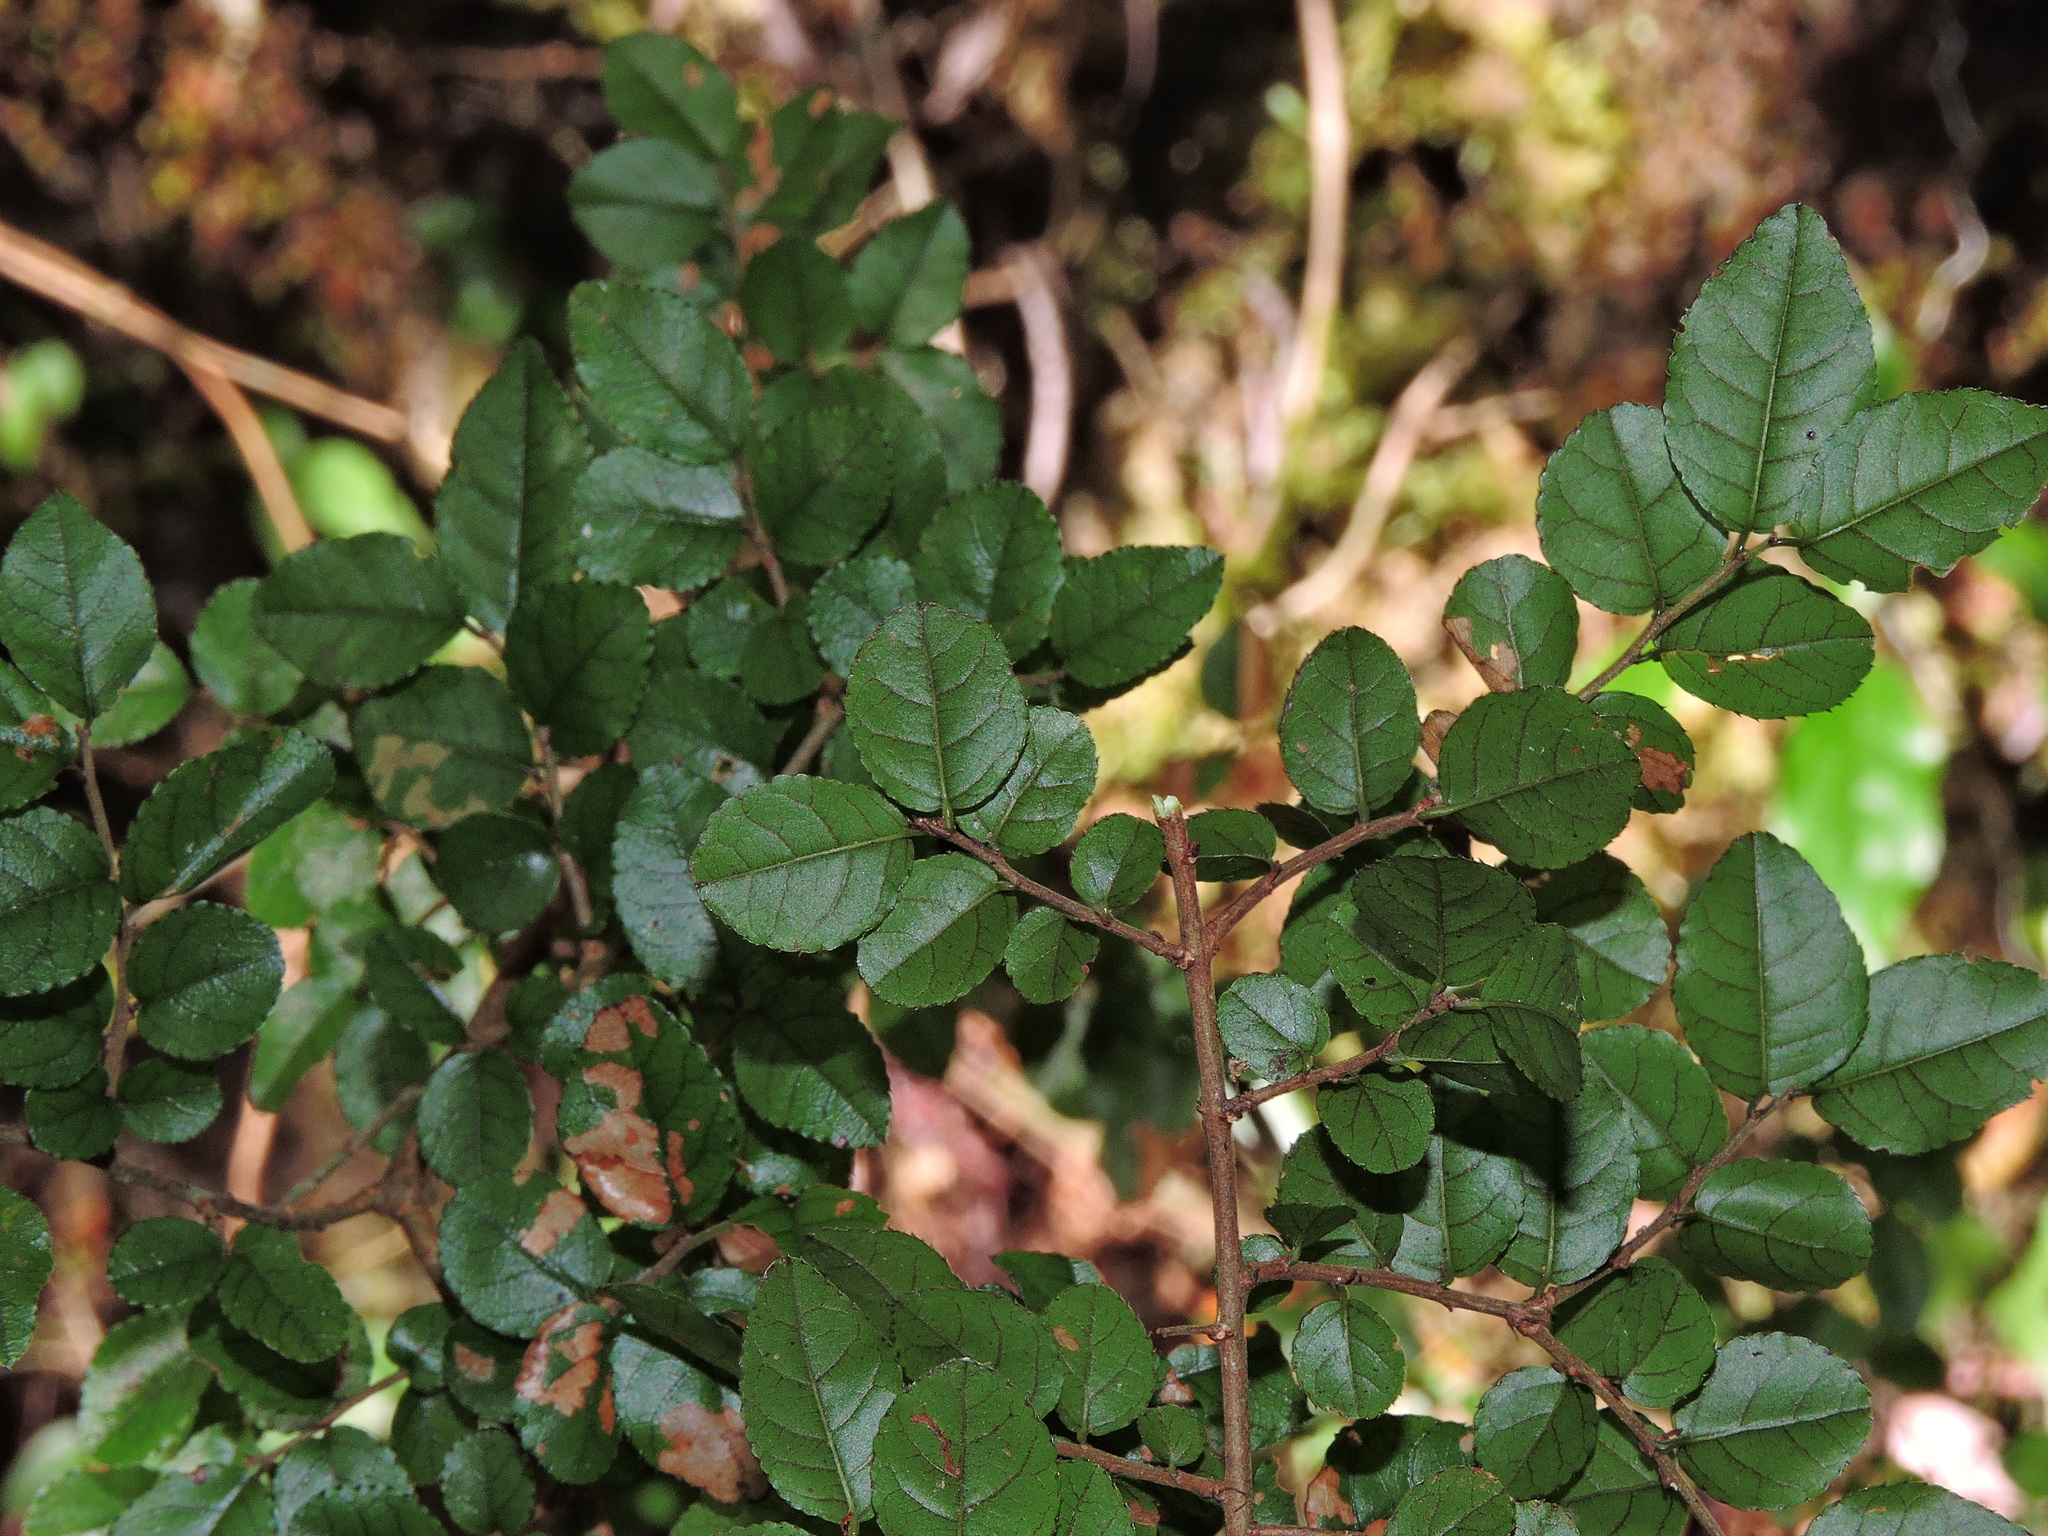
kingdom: Plantae
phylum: Tracheophyta
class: Magnoliopsida
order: Rosales
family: Rhamnaceae
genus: Sageretia
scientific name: Sageretia thea
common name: Pauper's-tea
